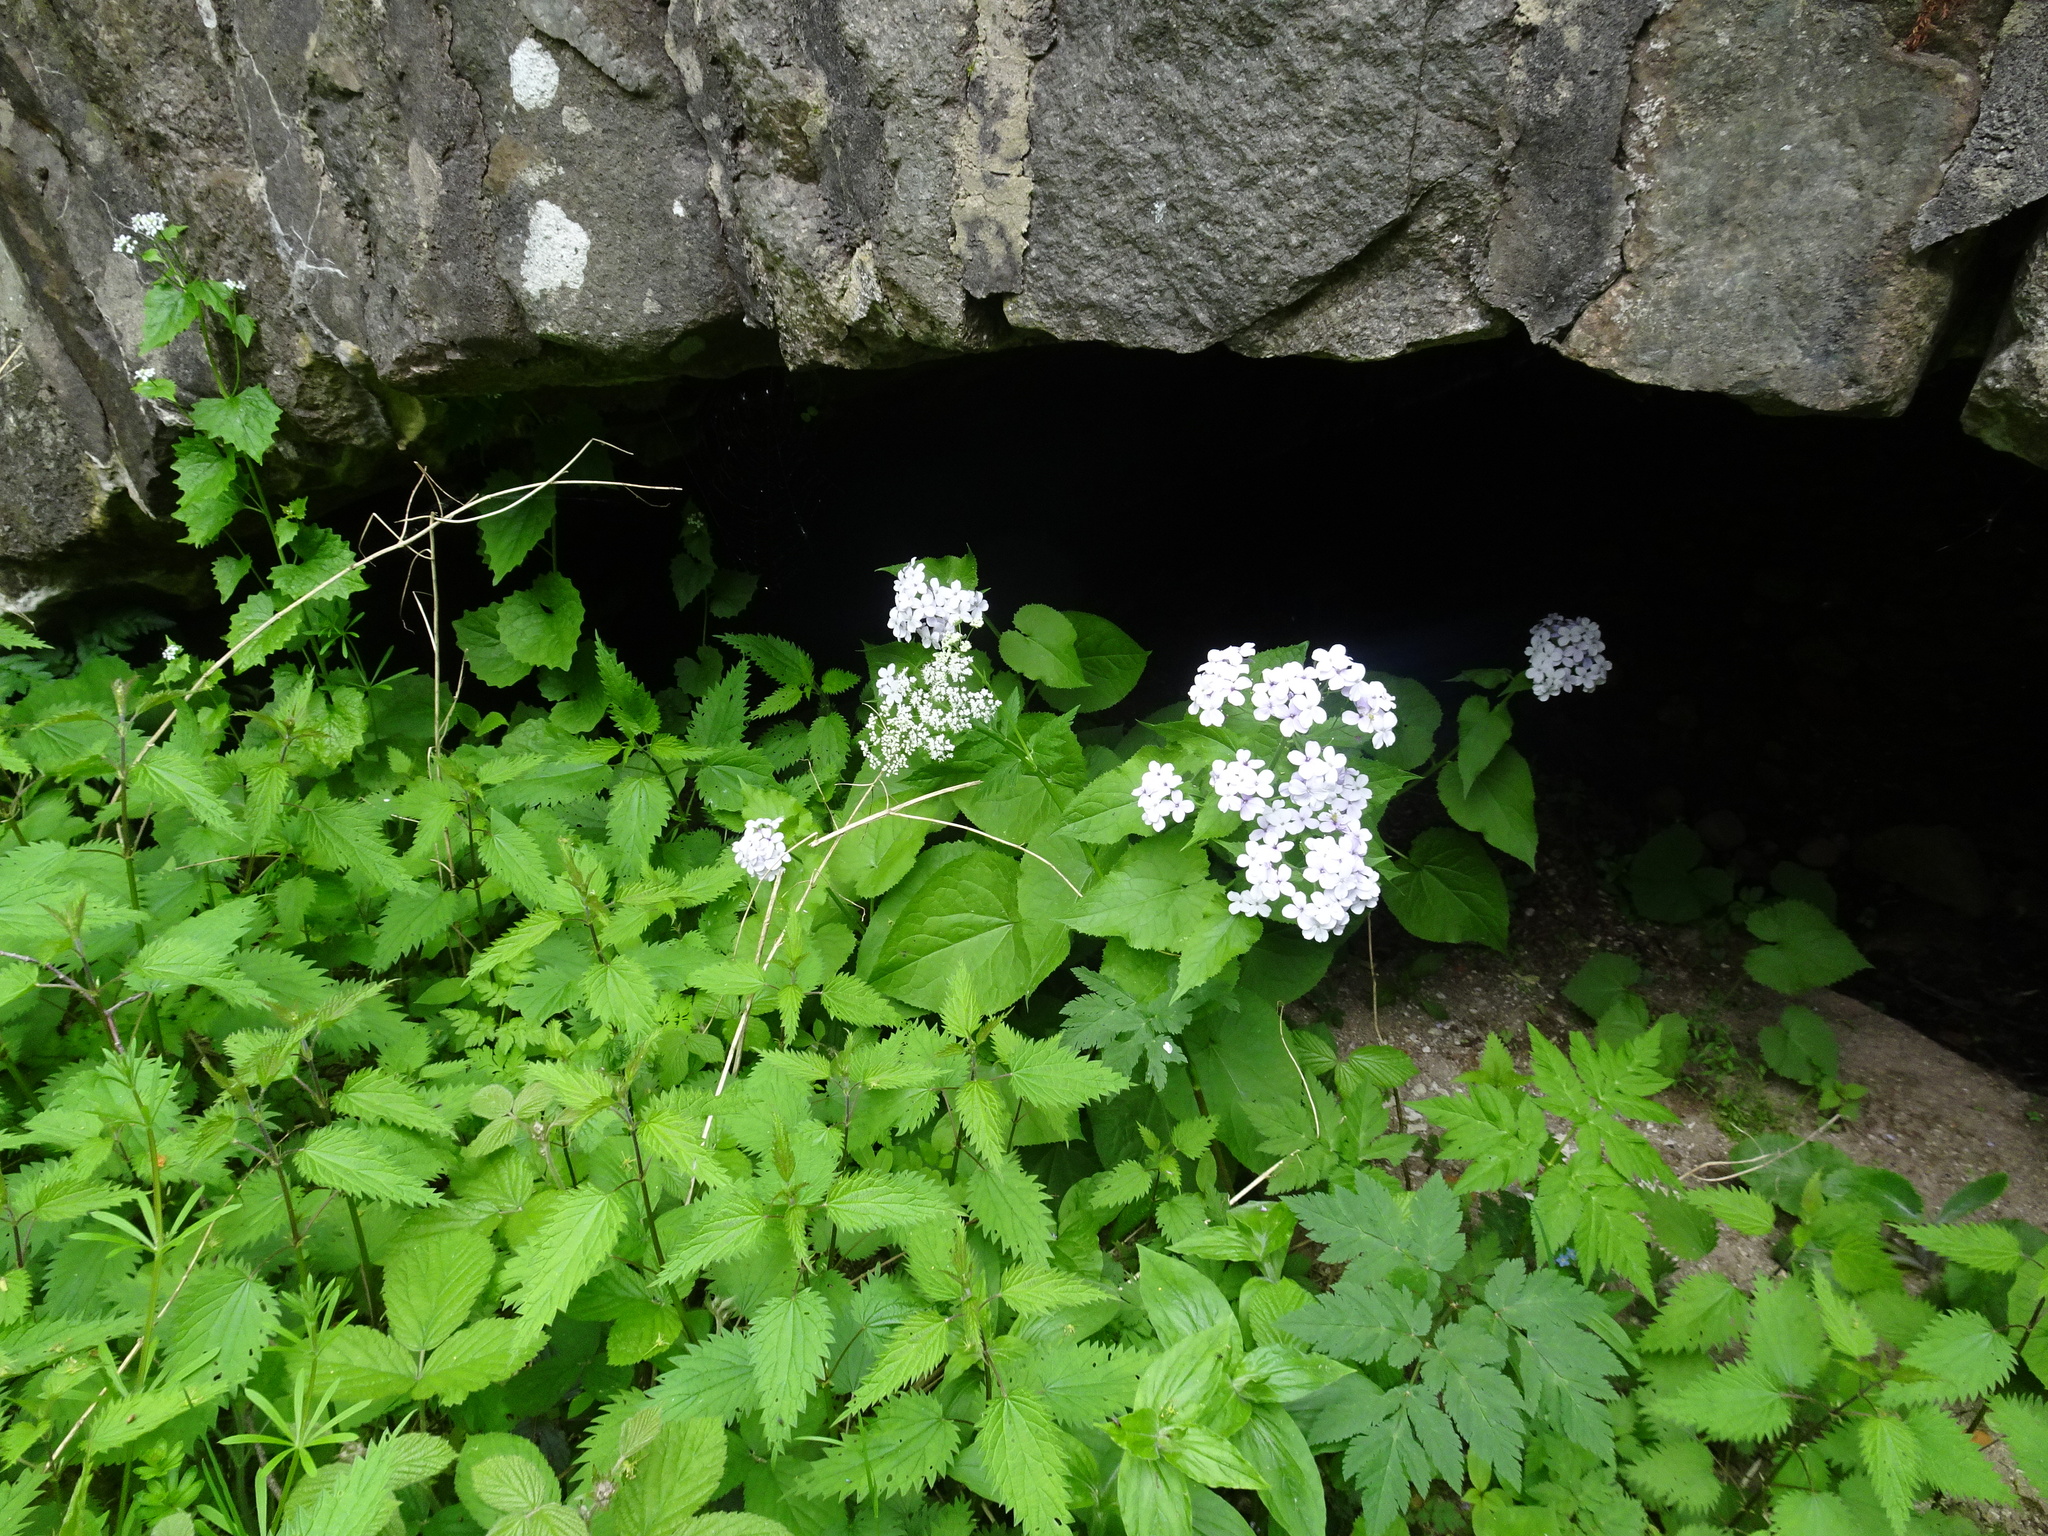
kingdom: Plantae
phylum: Tracheophyta
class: Magnoliopsida
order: Brassicales
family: Brassicaceae
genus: Lunaria
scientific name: Lunaria rediviva
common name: Perennial honesty
